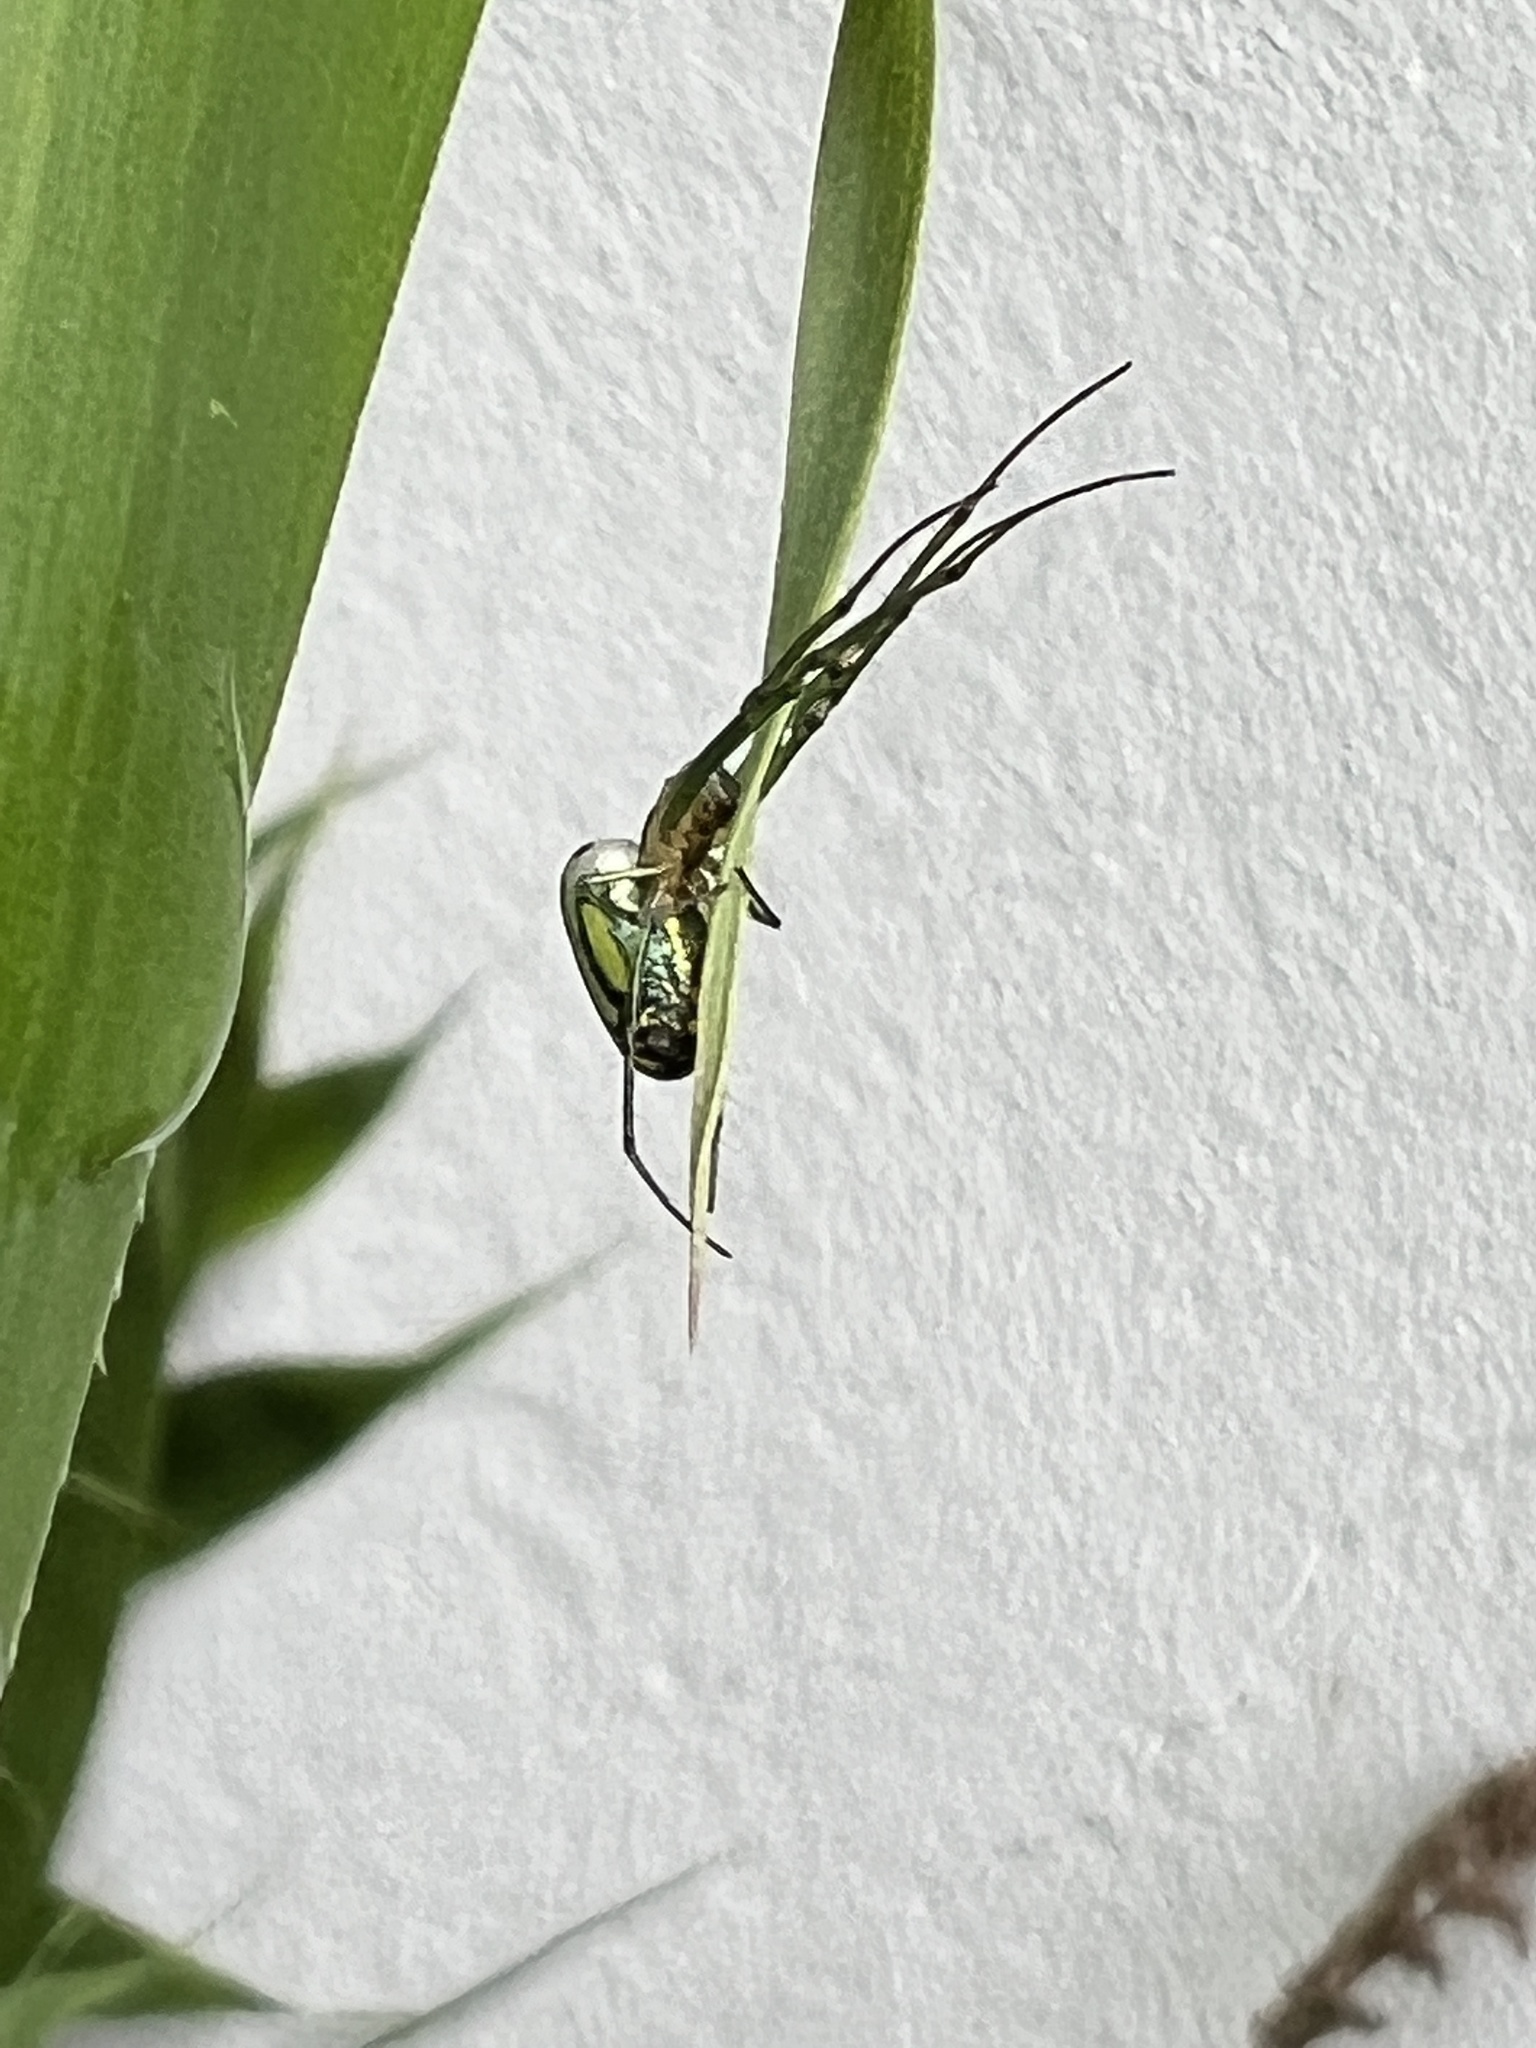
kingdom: Animalia
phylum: Arthropoda
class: Arachnida
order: Araneae
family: Tetragnathidae
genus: Leucauge
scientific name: Leucauge venusta
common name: Longjawed orb weavers
